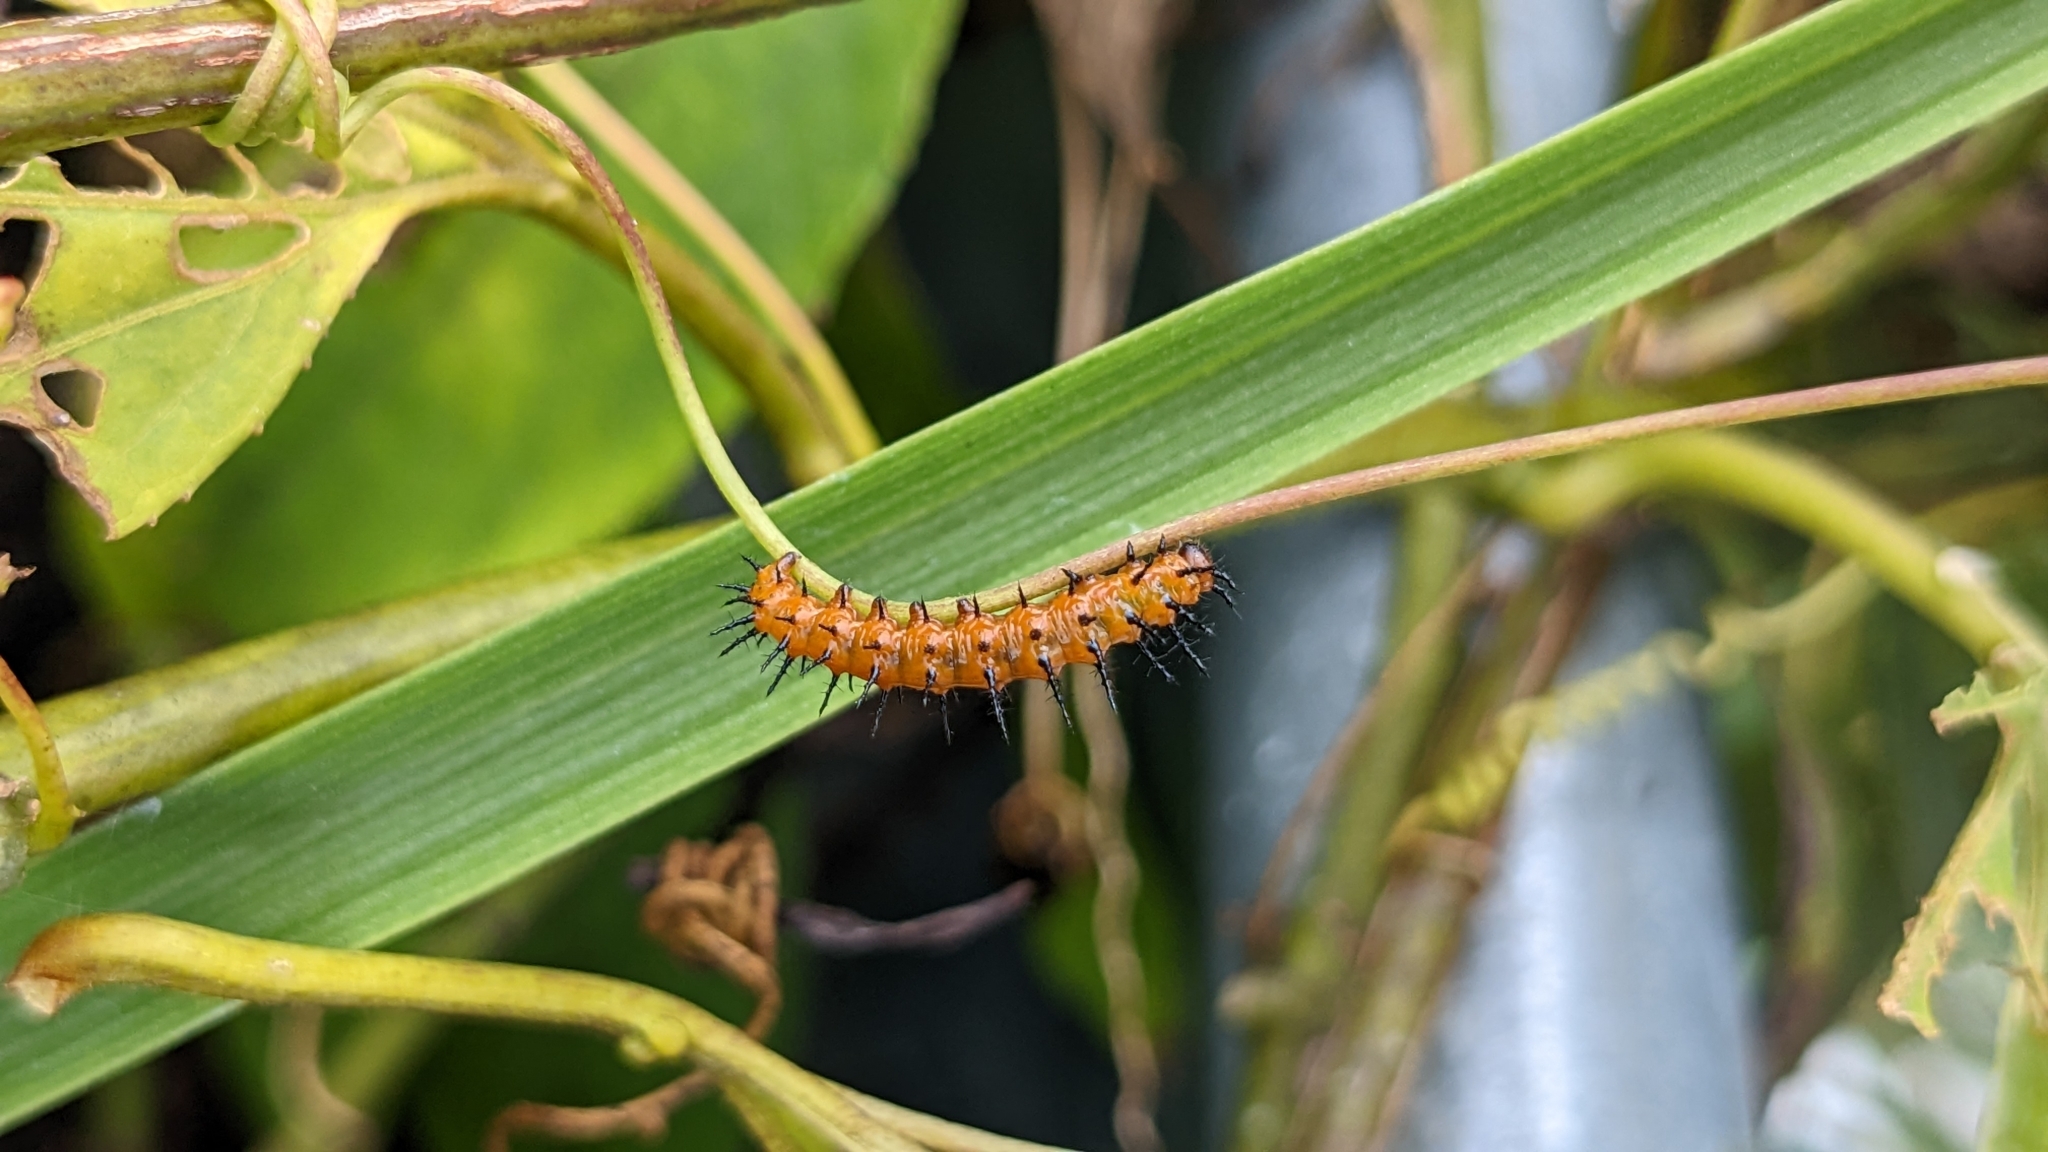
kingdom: Animalia
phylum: Arthropoda
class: Insecta
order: Lepidoptera
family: Nymphalidae
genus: Dione
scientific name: Dione vanillae
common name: Gulf fritillary
